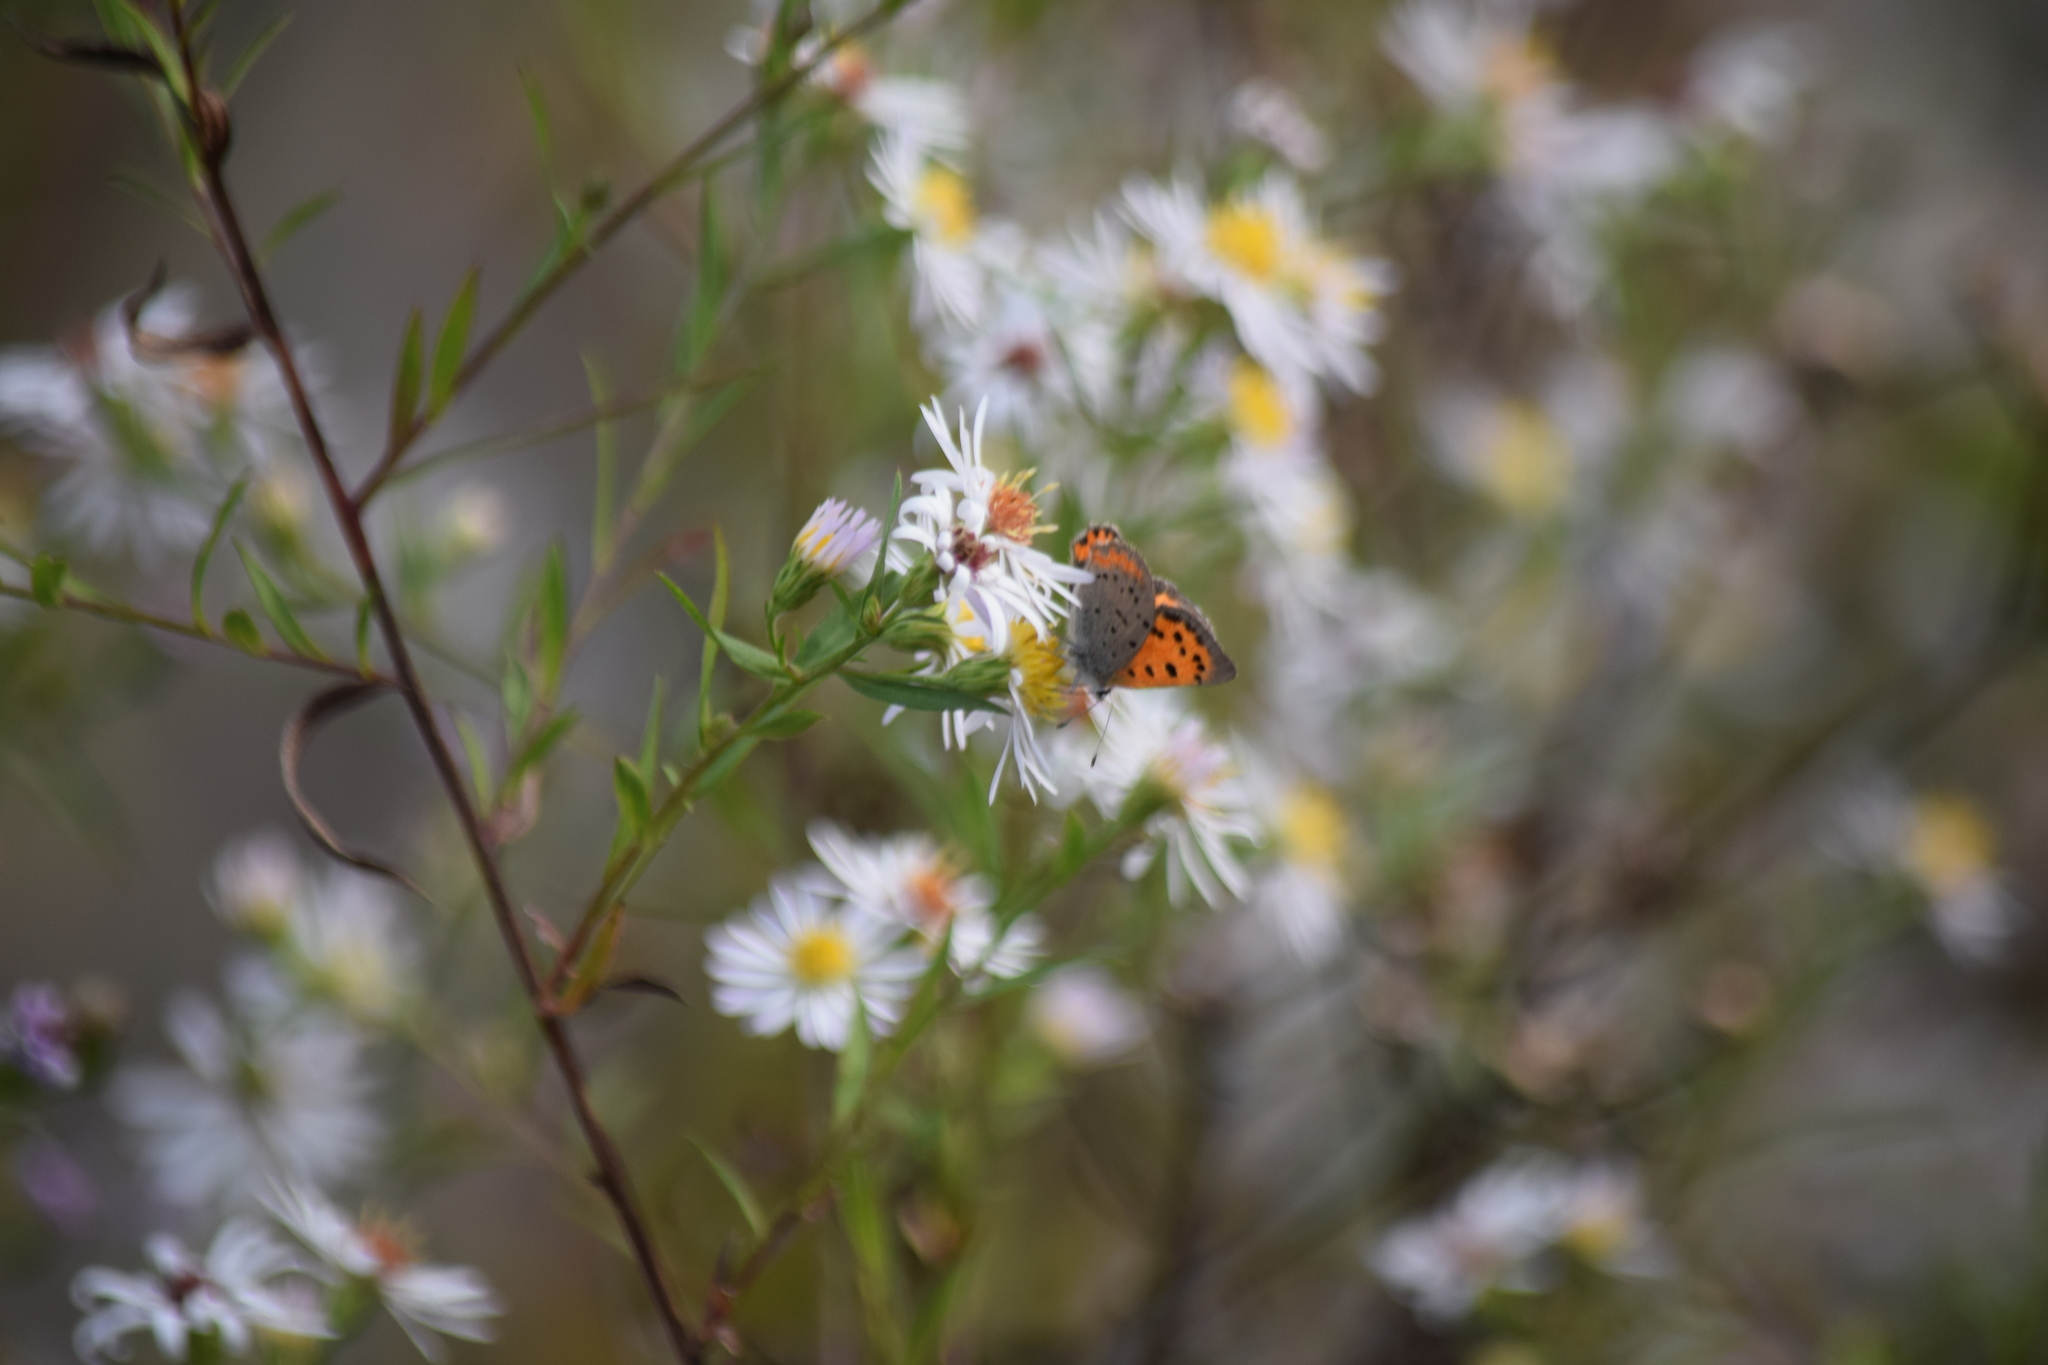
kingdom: Animalia
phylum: Arthropoda
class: Insecta
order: Lepidoptera
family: Lycaenidae
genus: Lycaena
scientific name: Lycaena hypophlaeas
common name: American copper
